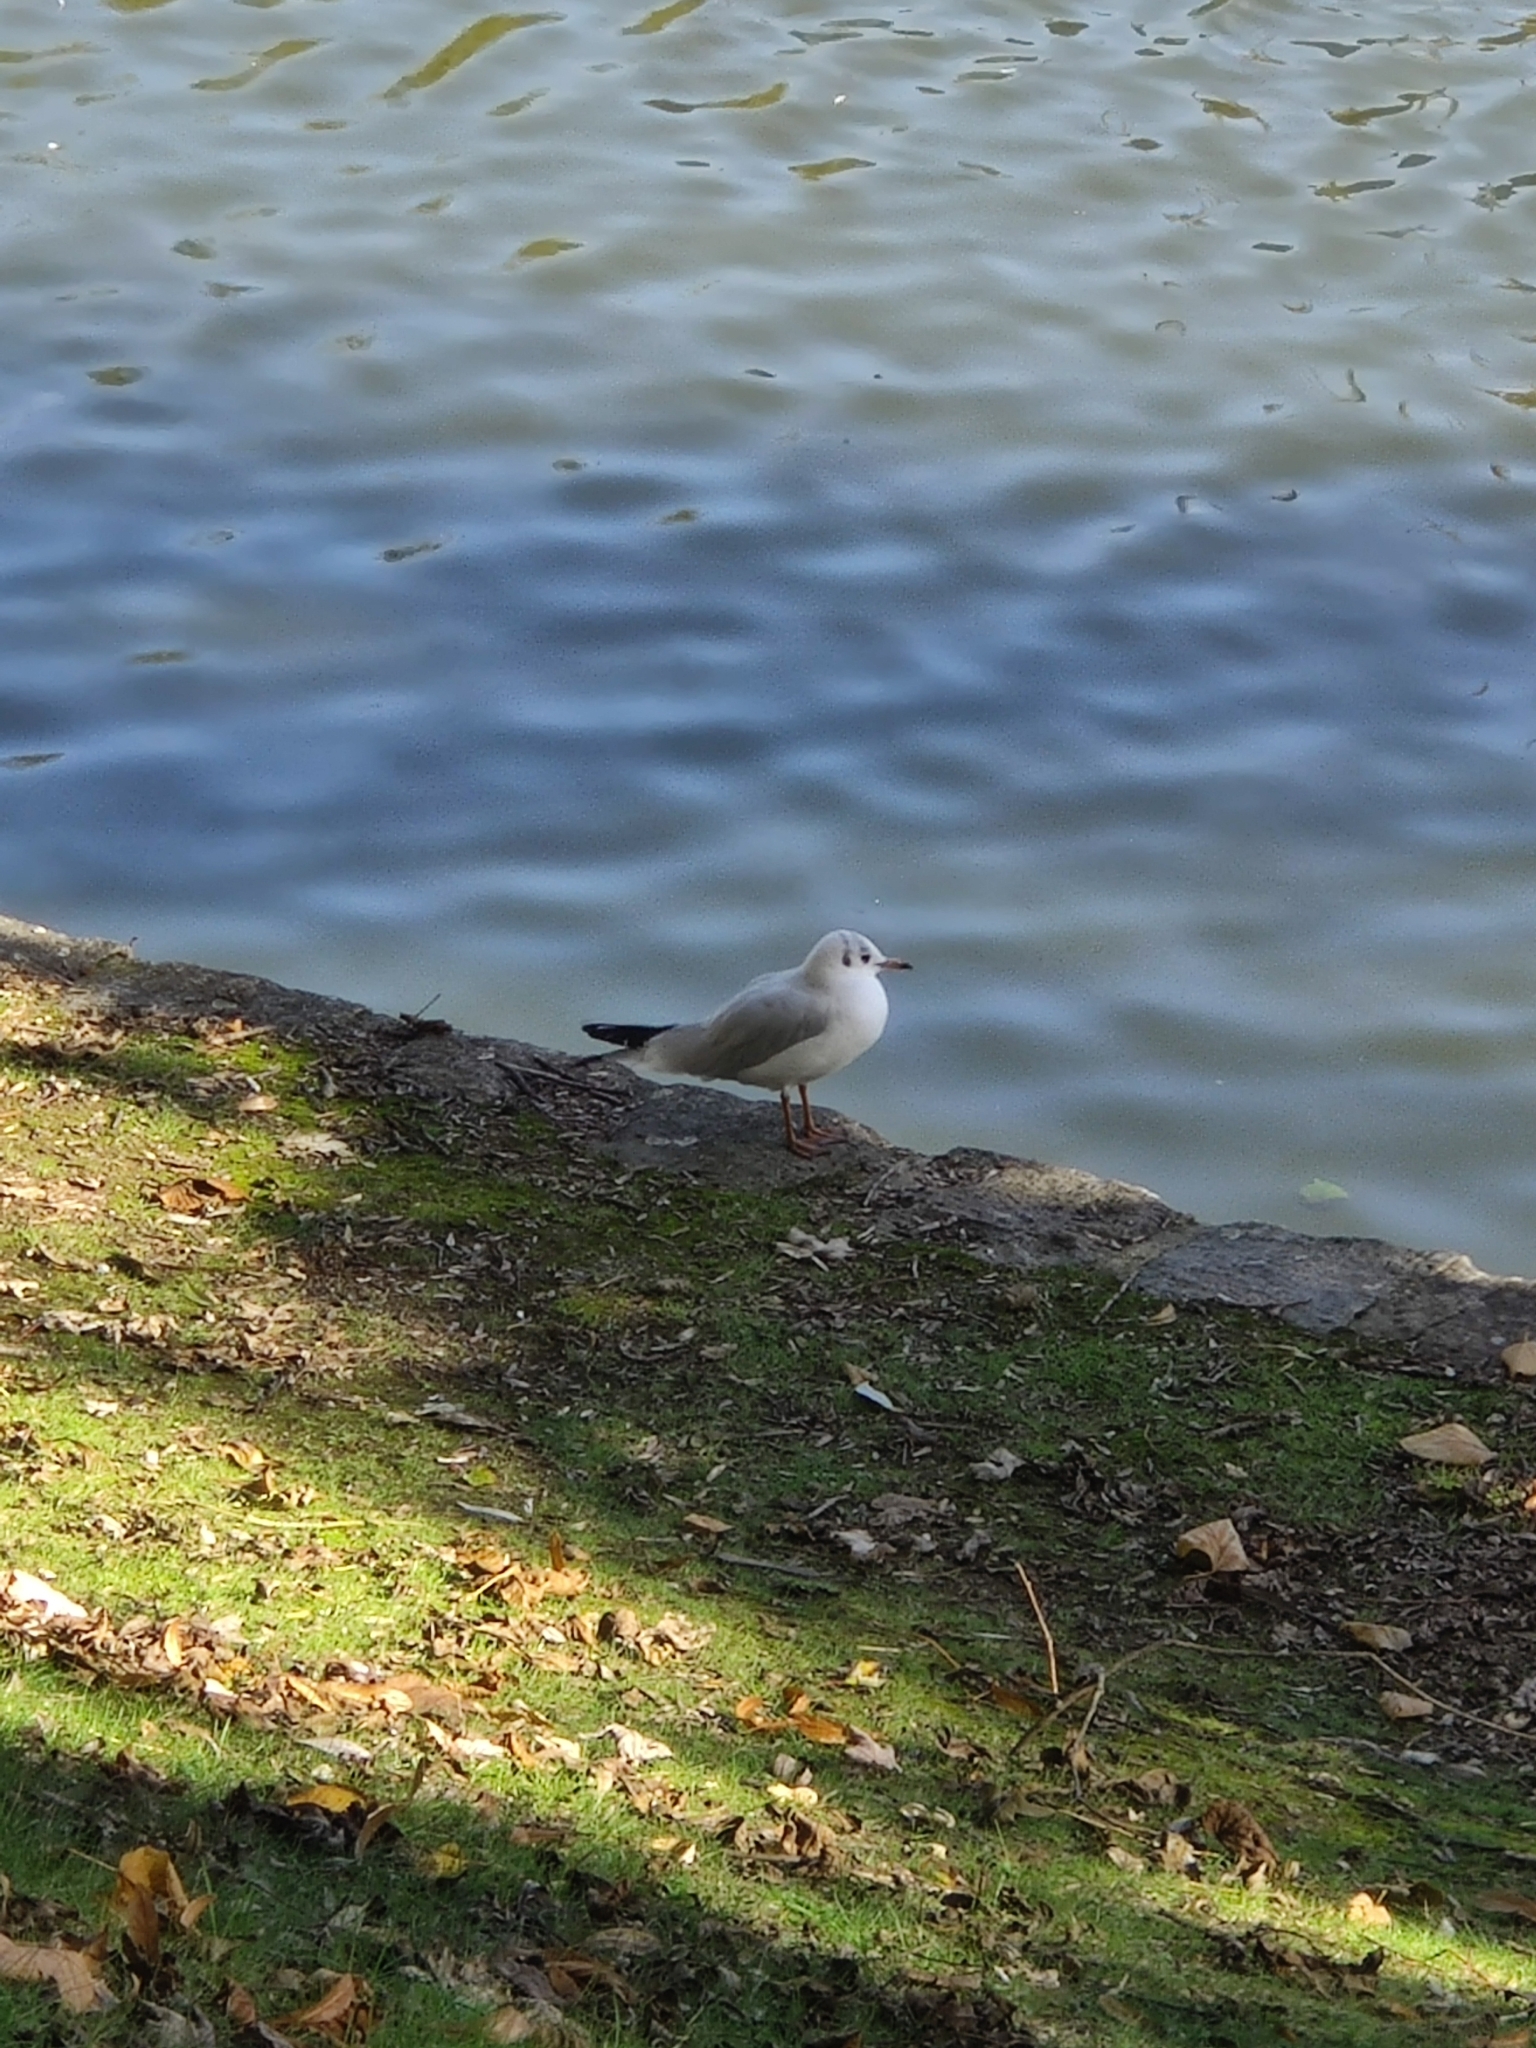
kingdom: Animalia
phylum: Chordata
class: Aves
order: Charadriiformes
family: Laridae
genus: Chroicocephalus
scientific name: Chroicocephalus ridibundus
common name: Black-headed gull
